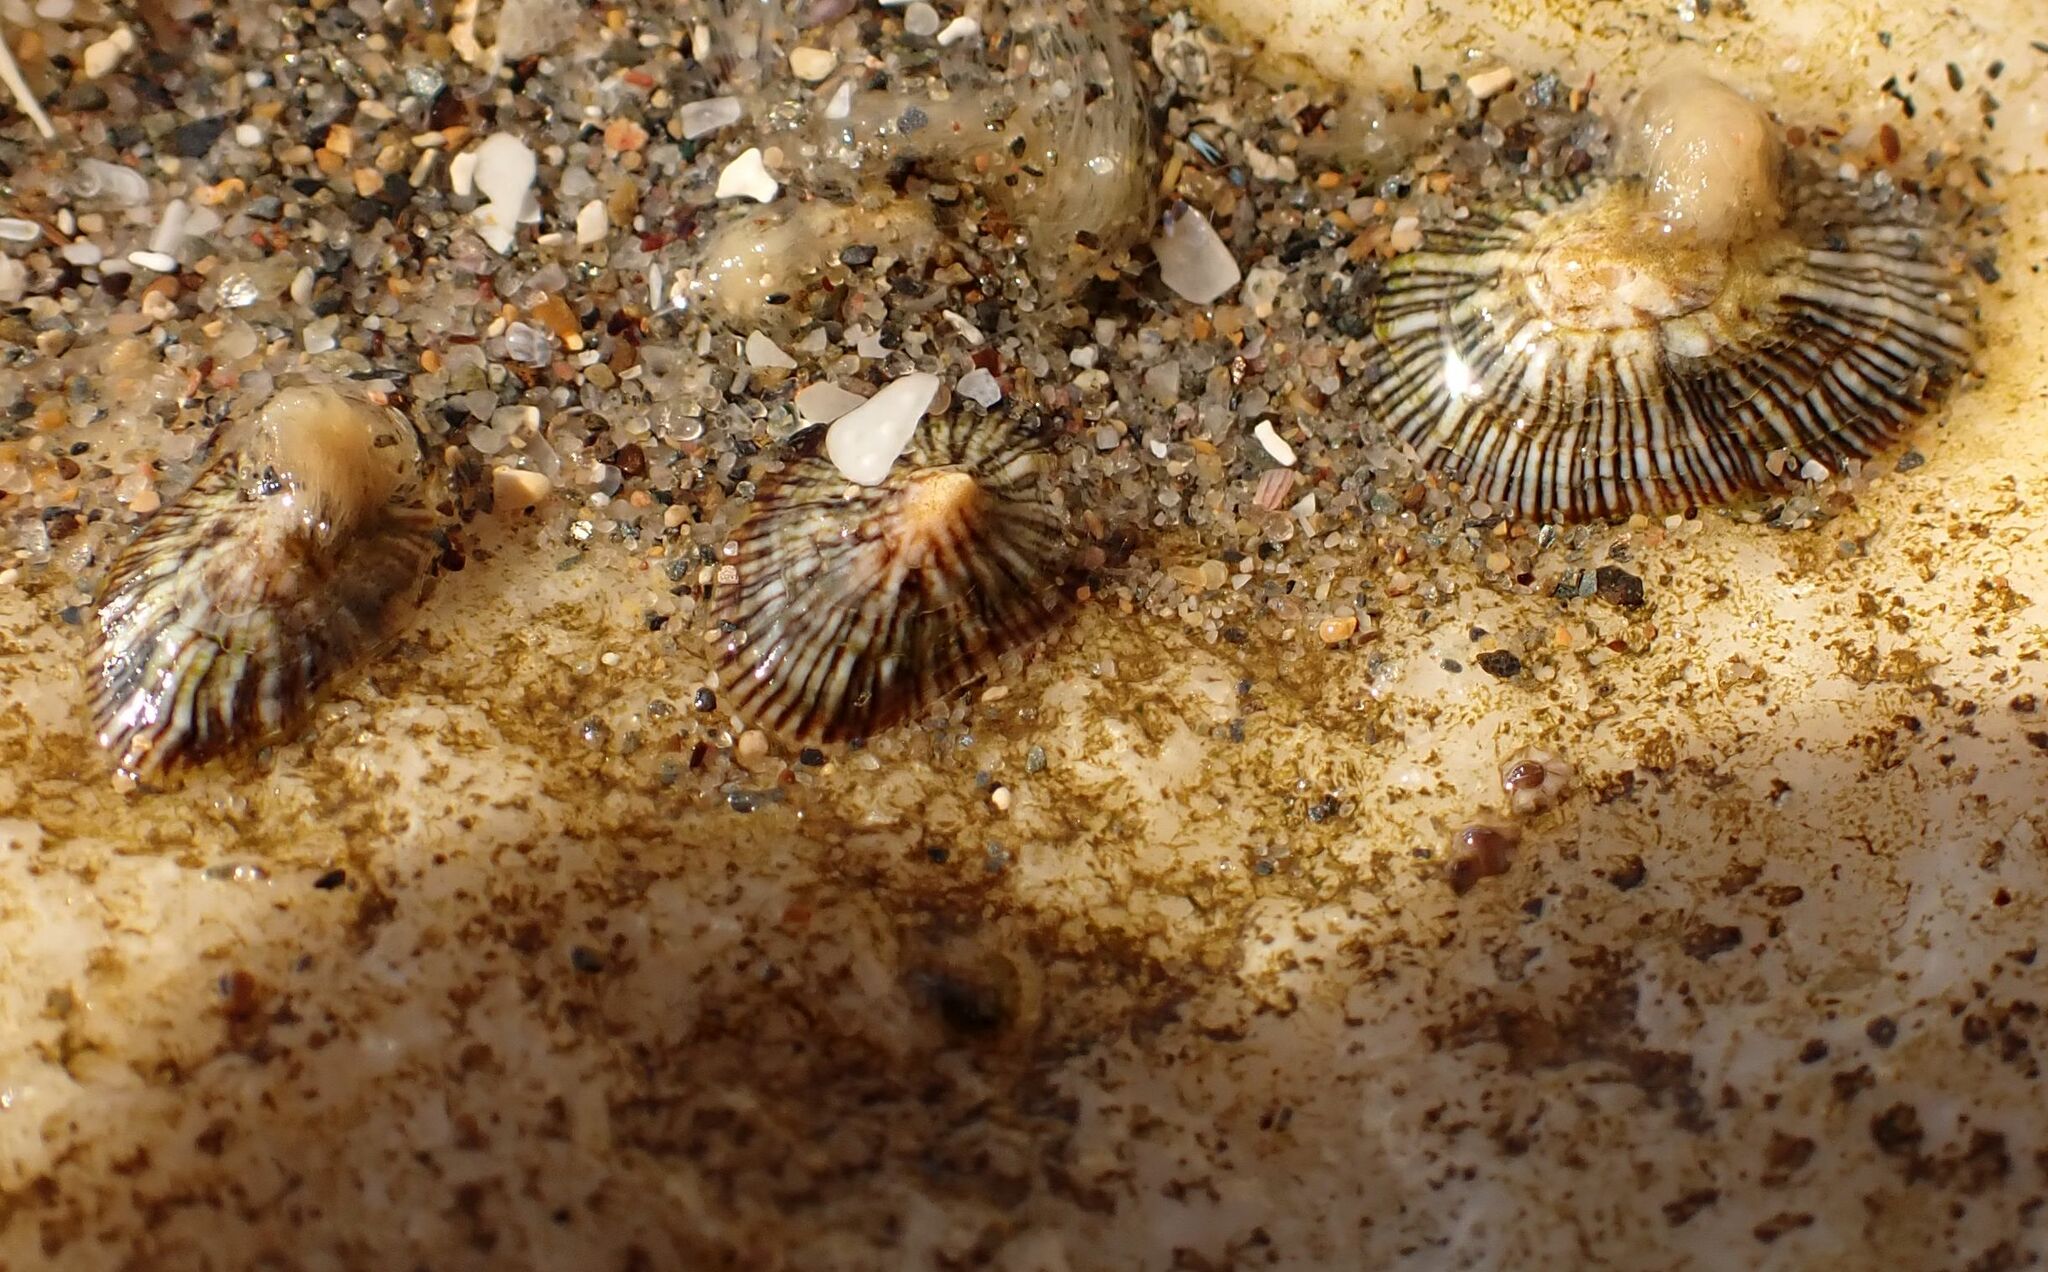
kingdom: Animalia
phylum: Mollusca
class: Gastropoda
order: Siphonariida
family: Siphonariidae
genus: Siphonaria
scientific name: Siphonaria pectinata
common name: Striped false limpet
